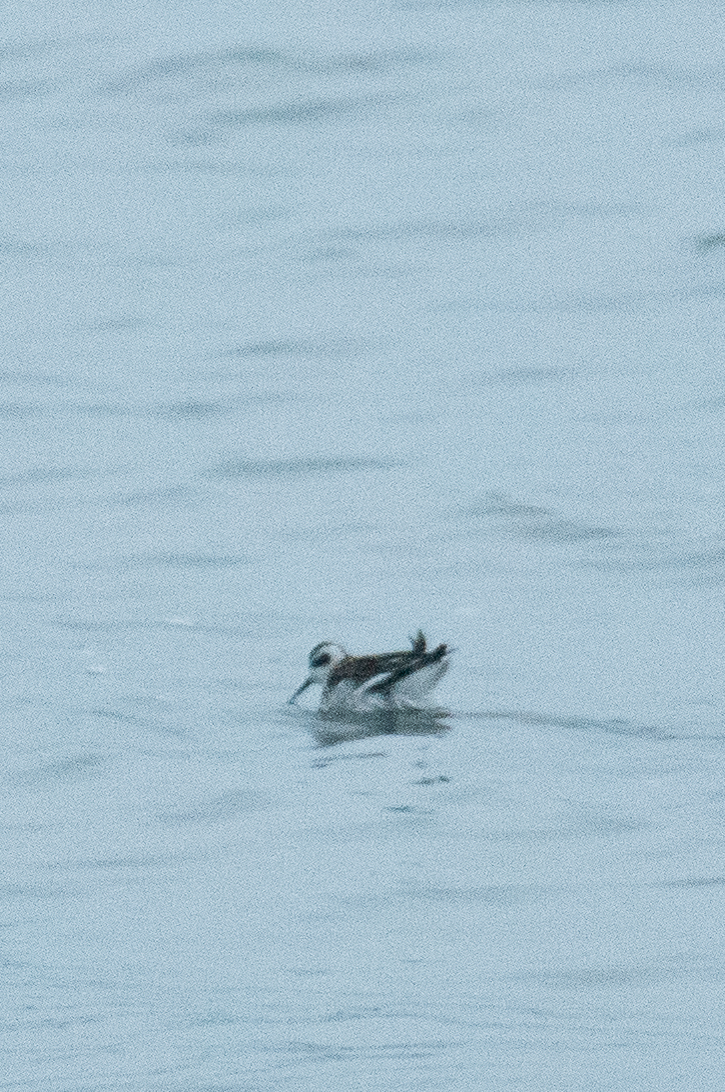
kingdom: Animalia
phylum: Chordata
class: Aves
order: Charadriiformes
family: Scolopacidae
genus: Phalaropus
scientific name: Phalaropus lobatus
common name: Red-necked phalarope
